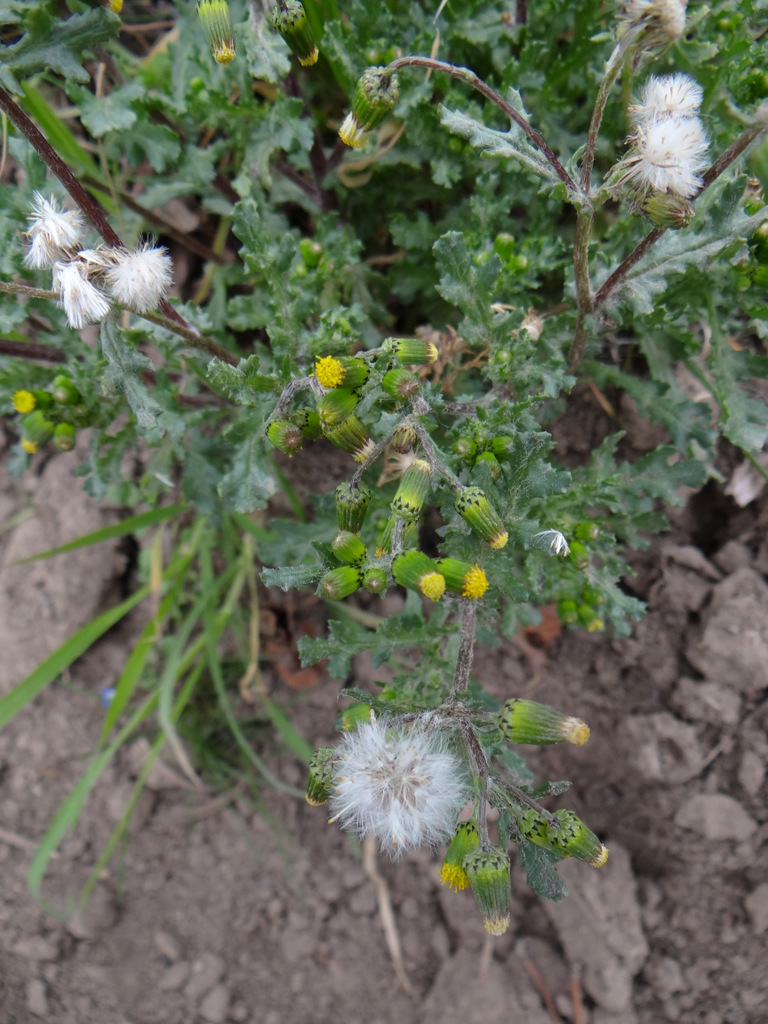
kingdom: Plantae
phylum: Tracheophyta
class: Magnoliopsida
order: Asterales
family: Asteraceae
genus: Senecio
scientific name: Senecio vulgaris
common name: Old-man-in-the-spring
